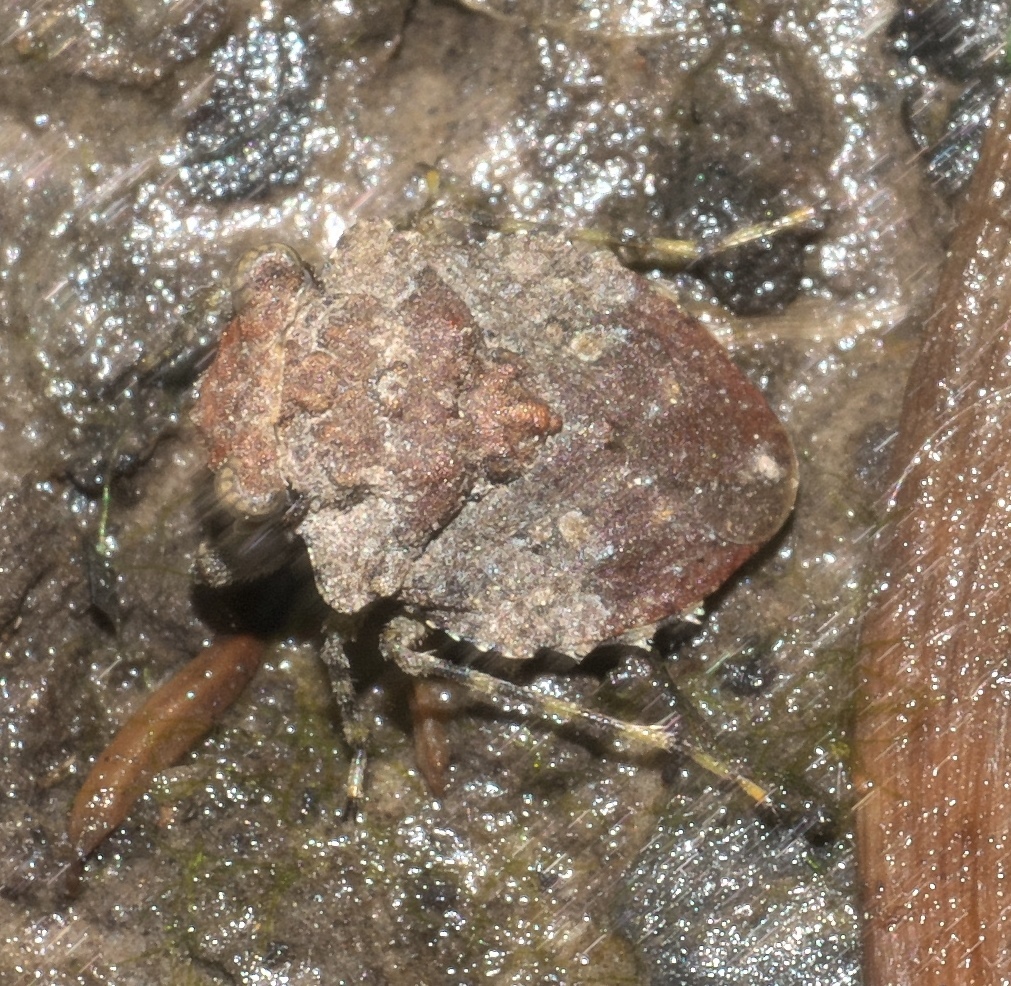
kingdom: Animalia
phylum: Arthropoda
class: Insecta
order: Hemiptera
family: Gelastocoridae
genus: Gelastocoris
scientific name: Gelastocoris oculatus
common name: Toad bug
